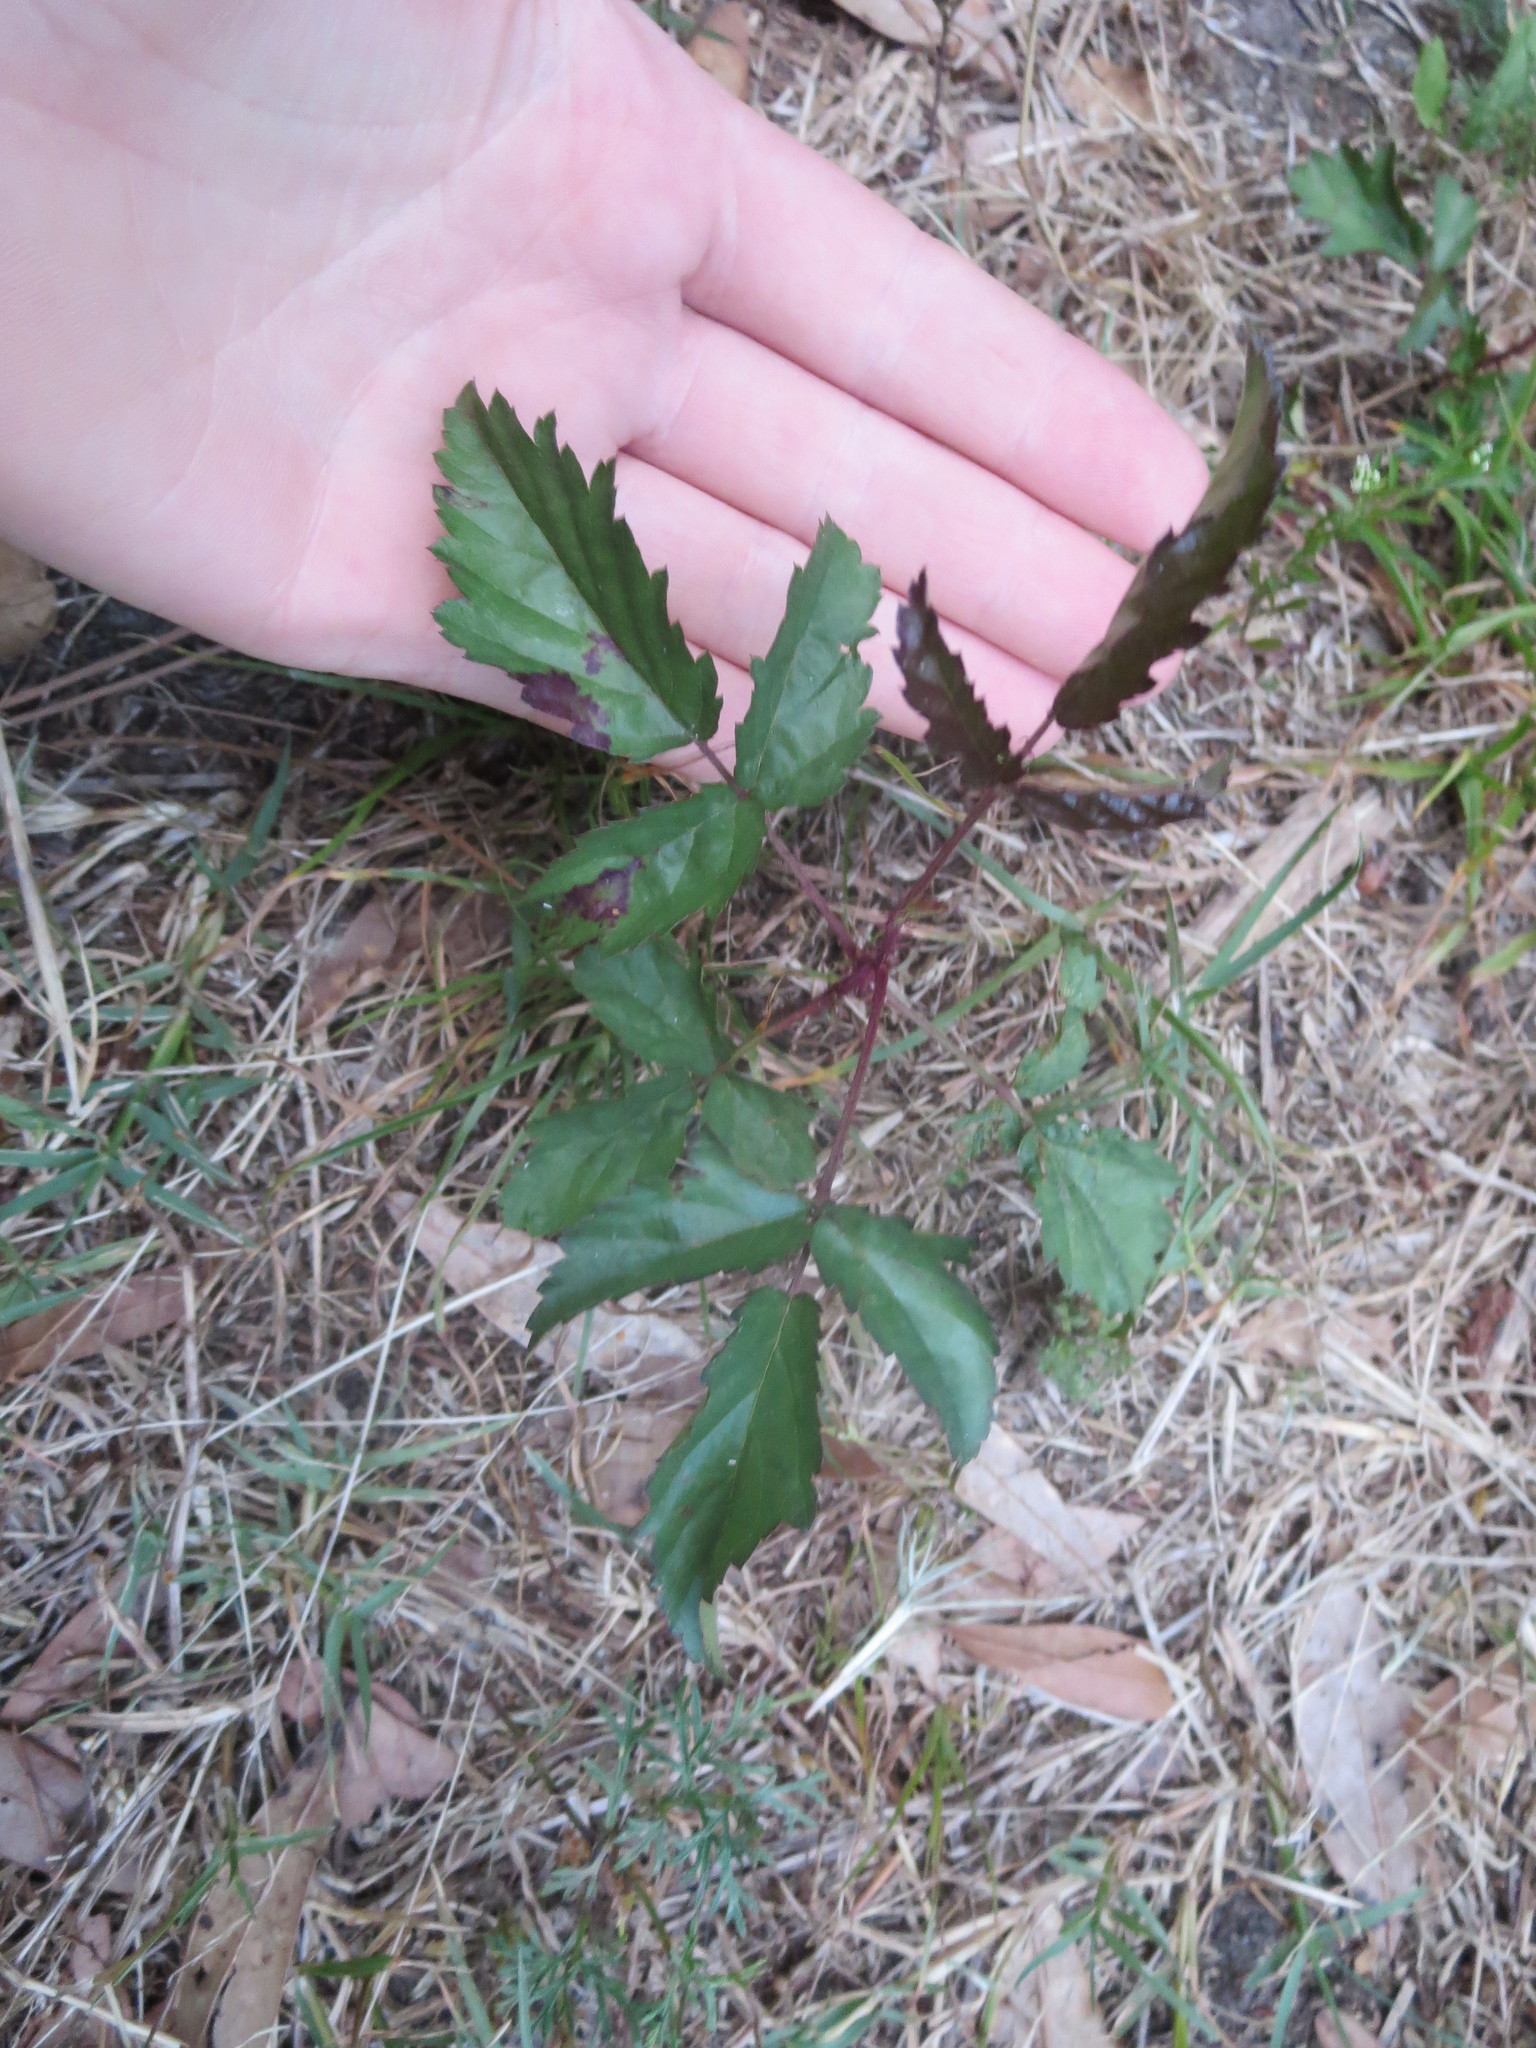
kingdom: Plantae
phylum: Tracheophyta
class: Magnoliopsida
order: Rosales
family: Rosaceae
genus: Rubus
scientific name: Rubus
